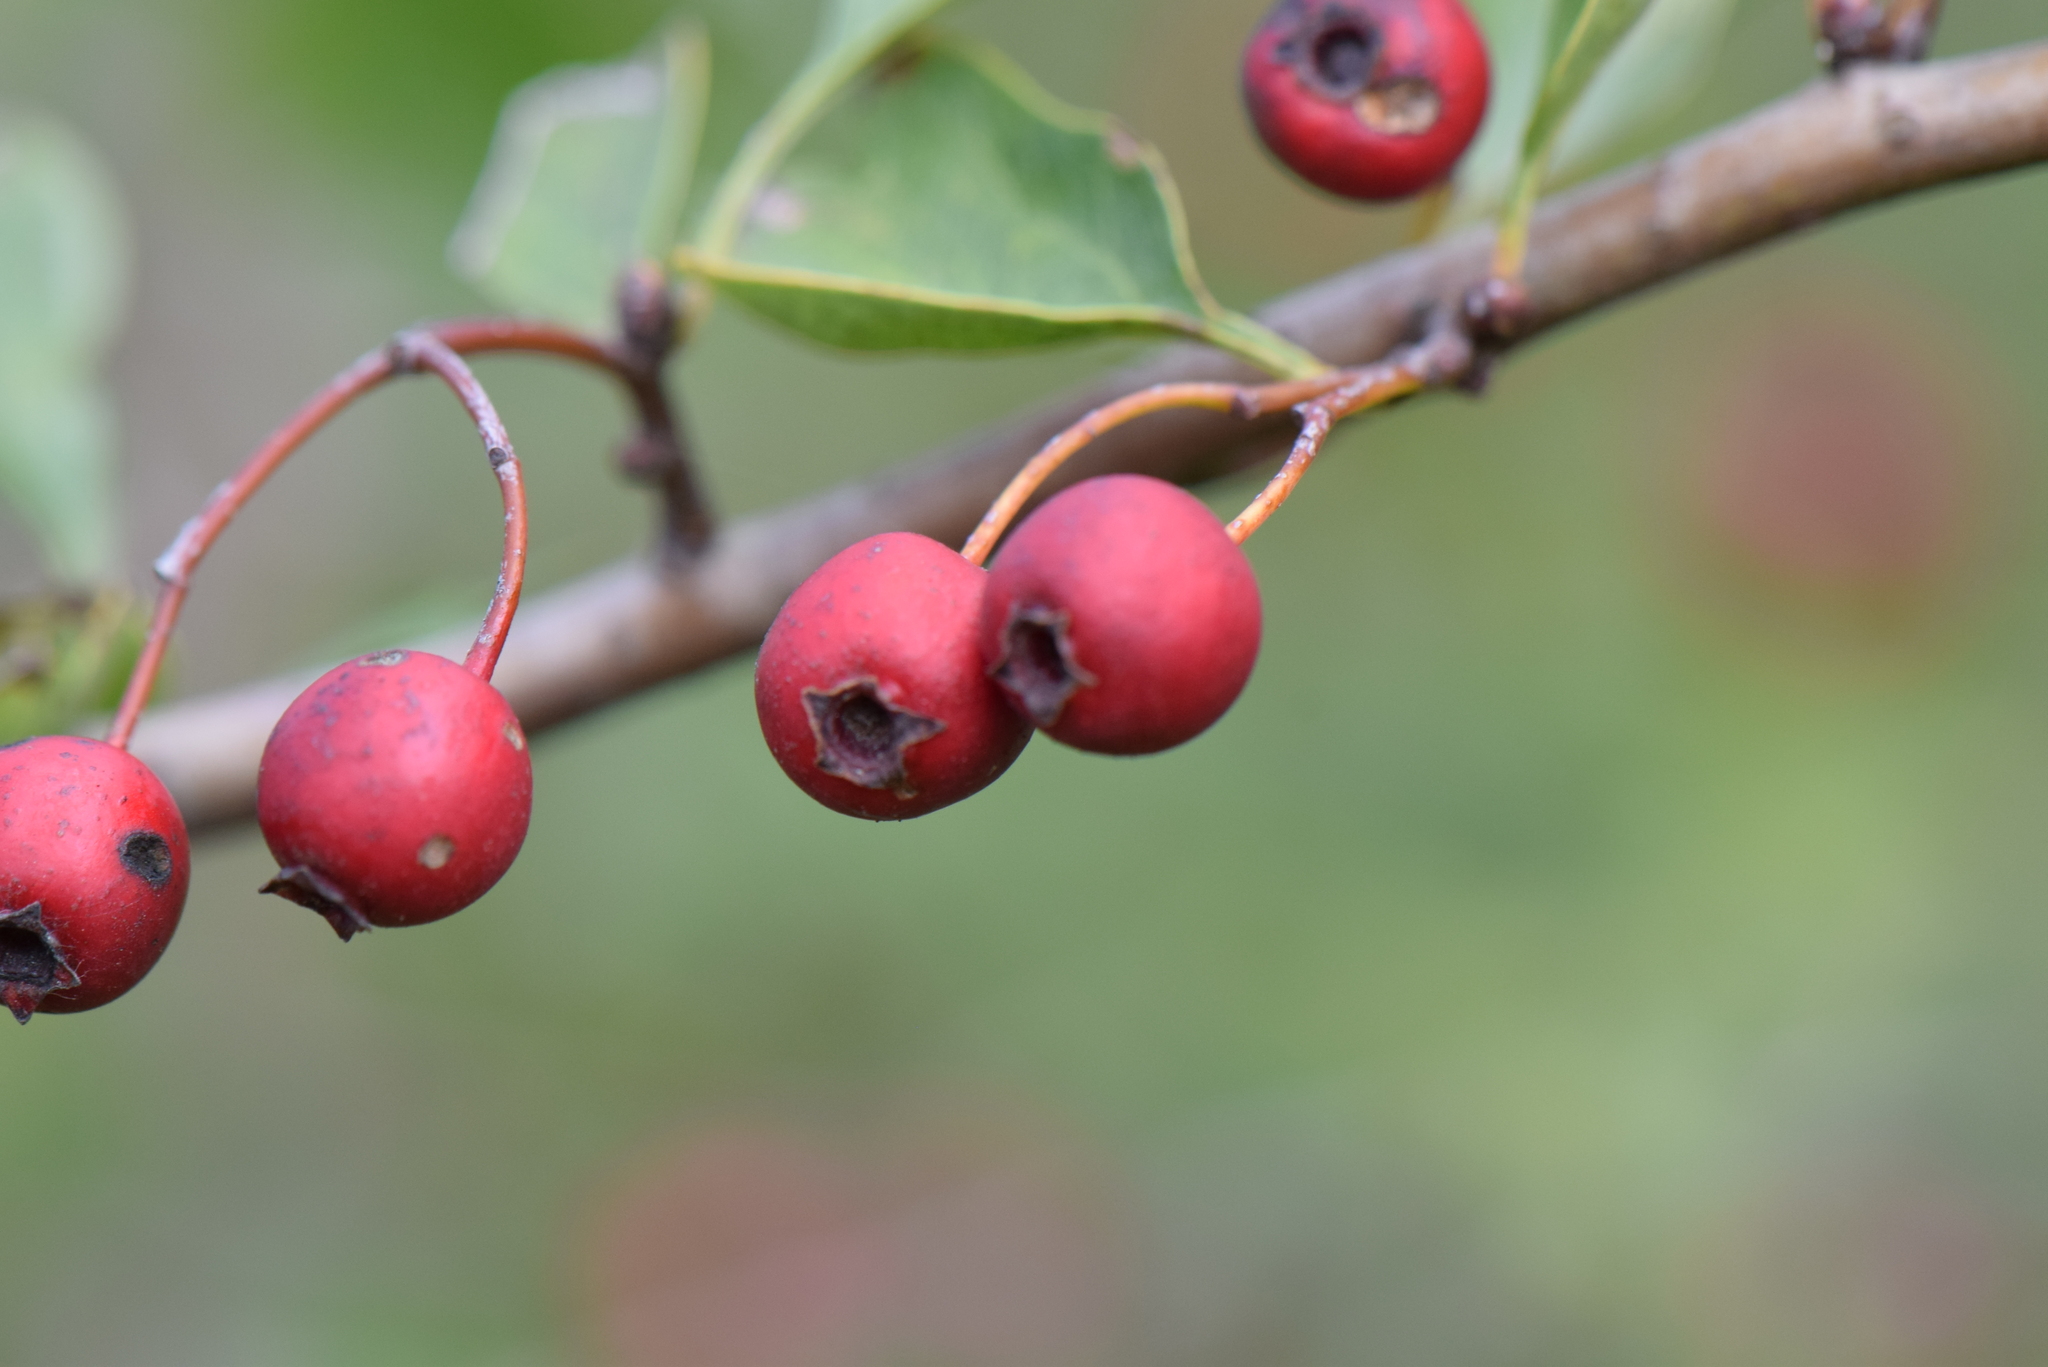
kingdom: Plantae
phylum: Tracheophyta
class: Magnoliopsida
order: Rosales
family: Rosaceae
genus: Crataegus
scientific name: Crataegus monogyna
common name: Hawthorn
